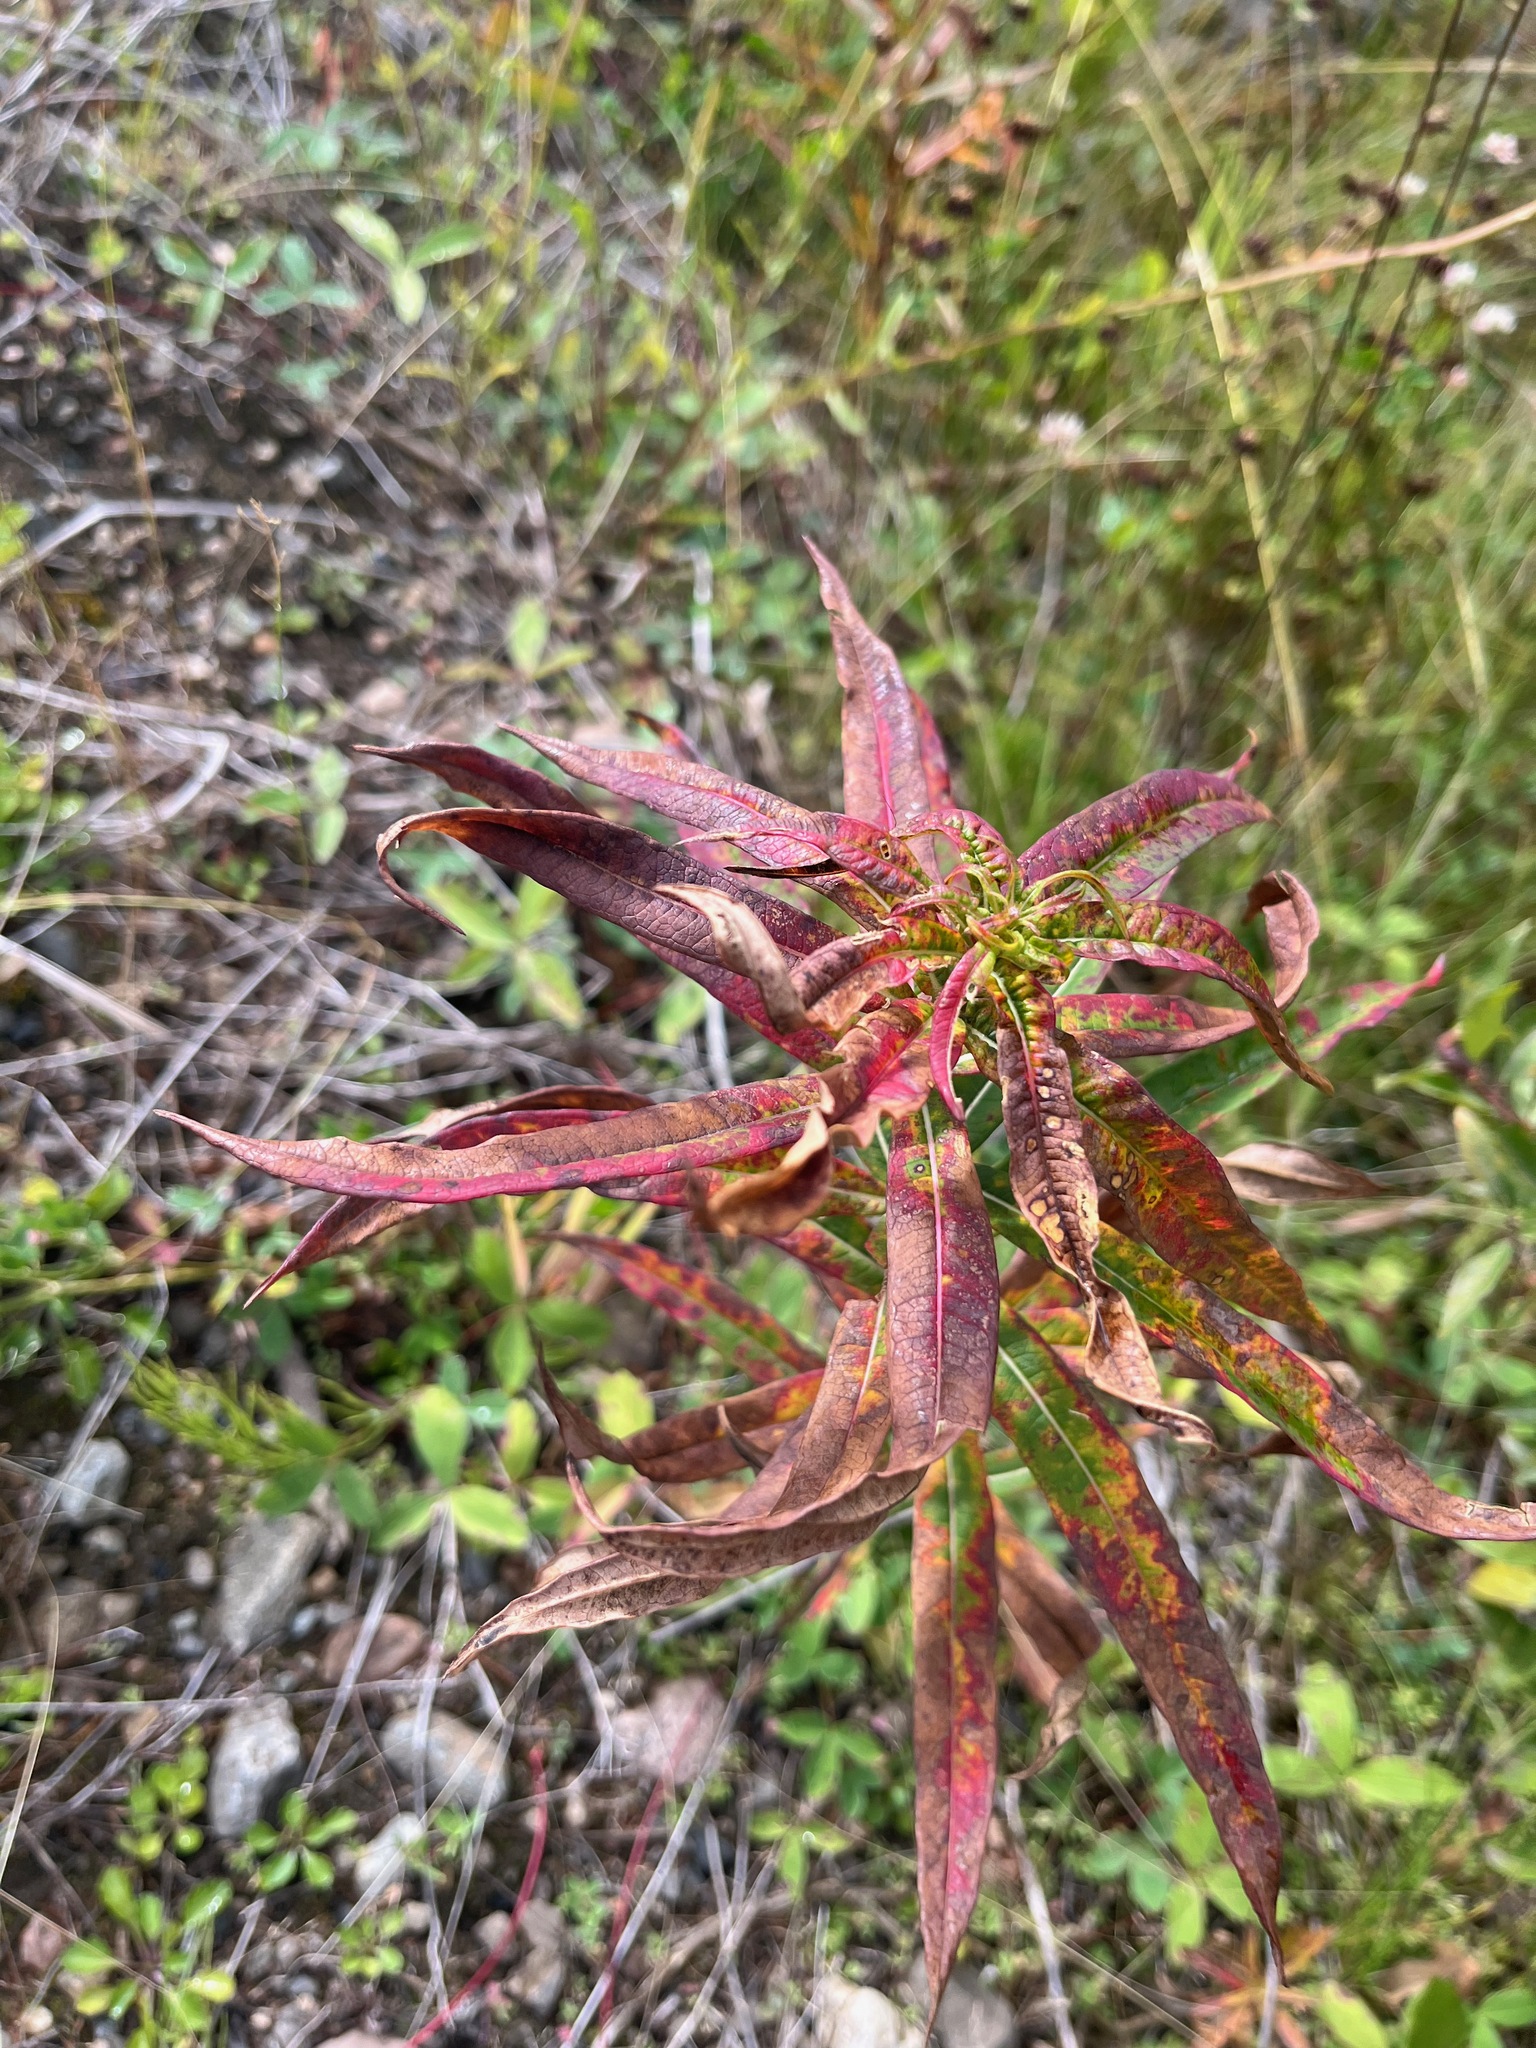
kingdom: Plantae
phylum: Tracheophyta
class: Magnoliopsida
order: Myrtales
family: Onagraceae
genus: Chamaenerion
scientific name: Chamaenerion angustifolium
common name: Fireweed
